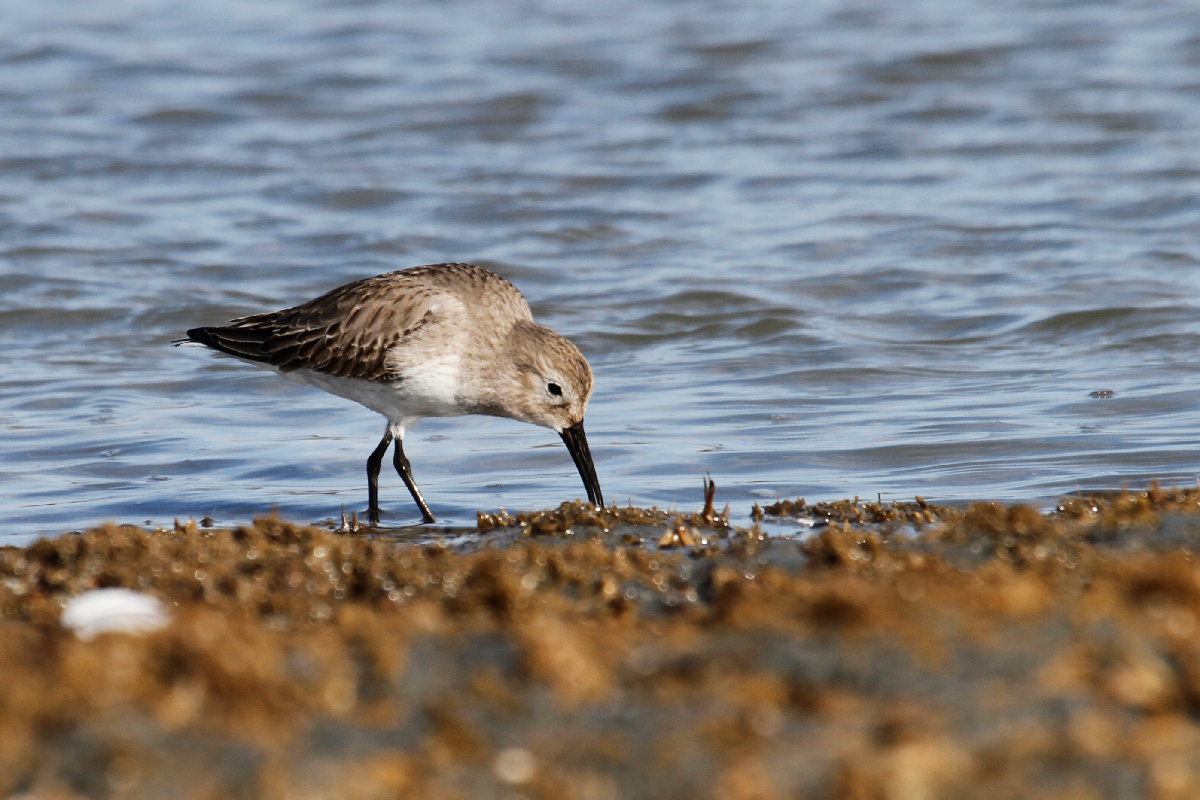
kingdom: Animalia
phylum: Chordata
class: Aves
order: Charadriiformes
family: Scolopacidae
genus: Calidris
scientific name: Calidris alpina
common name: Dunlin
